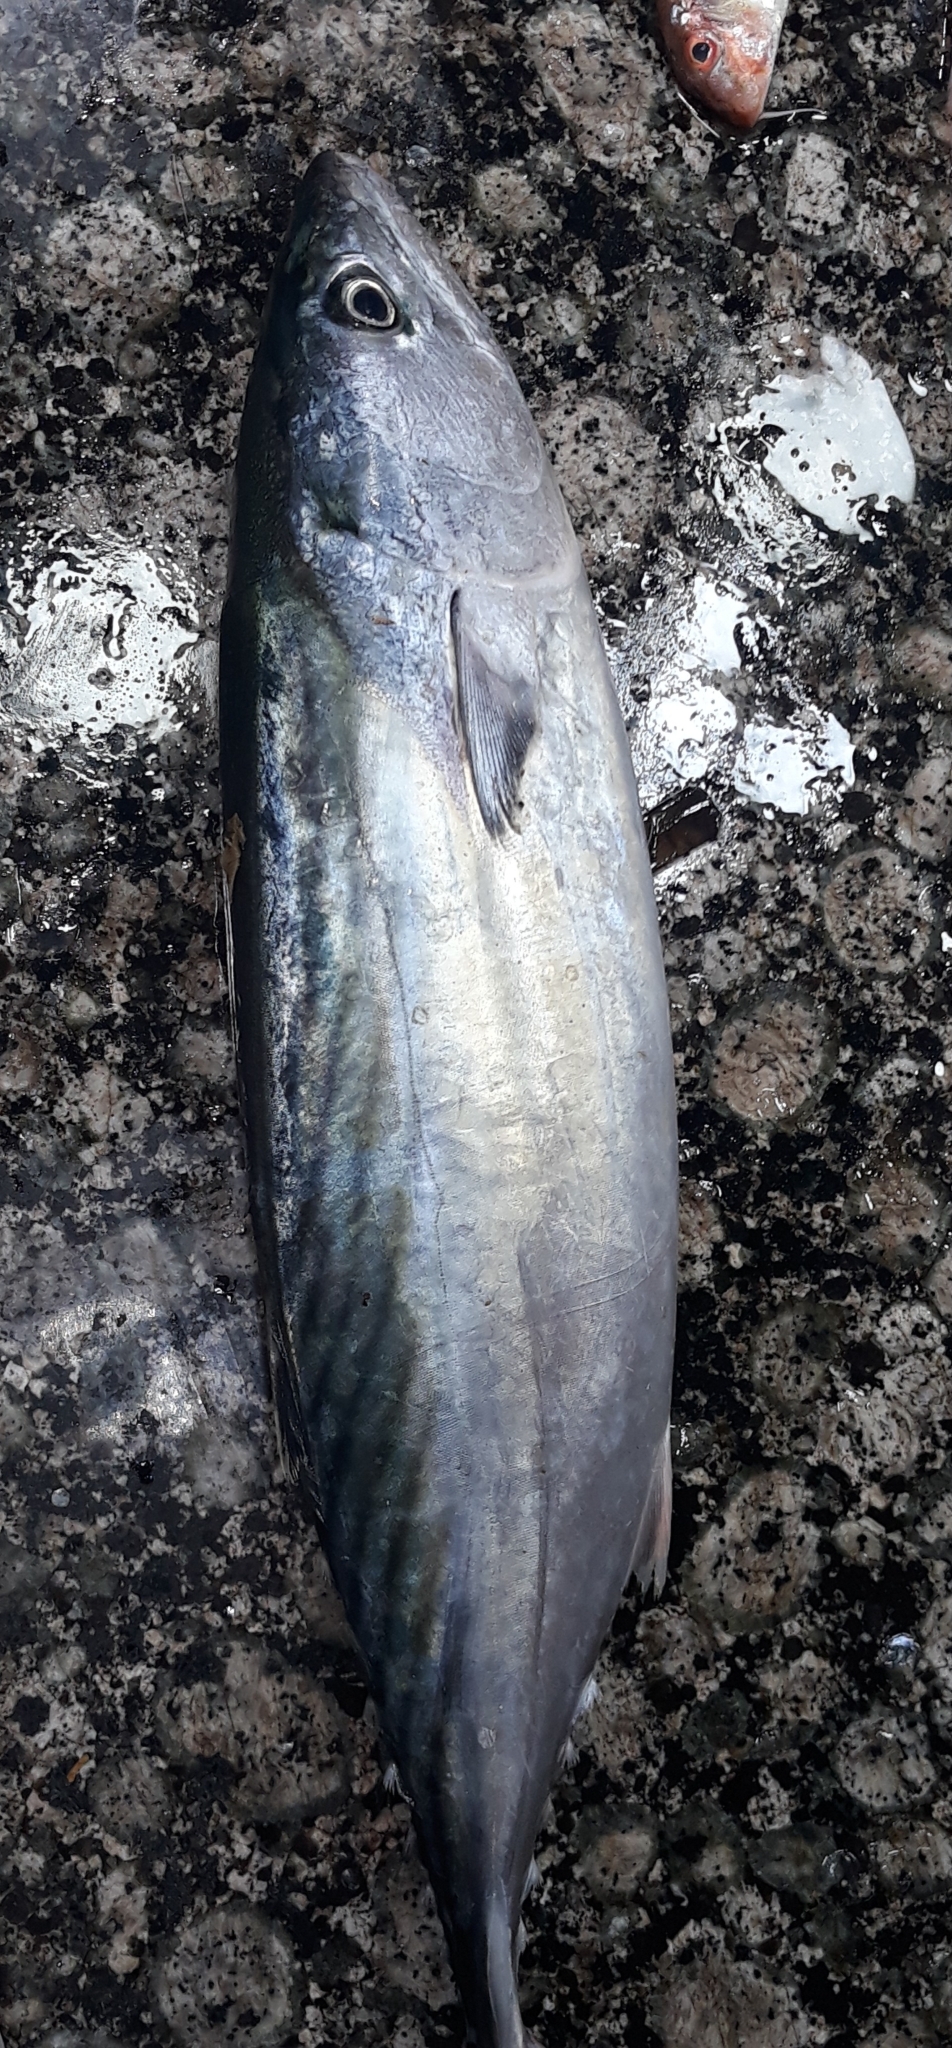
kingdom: Animalia
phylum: Chordata
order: Perciformes
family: Scombridae
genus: Sarda
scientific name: Sarda sarda
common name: Atlantic bonito
